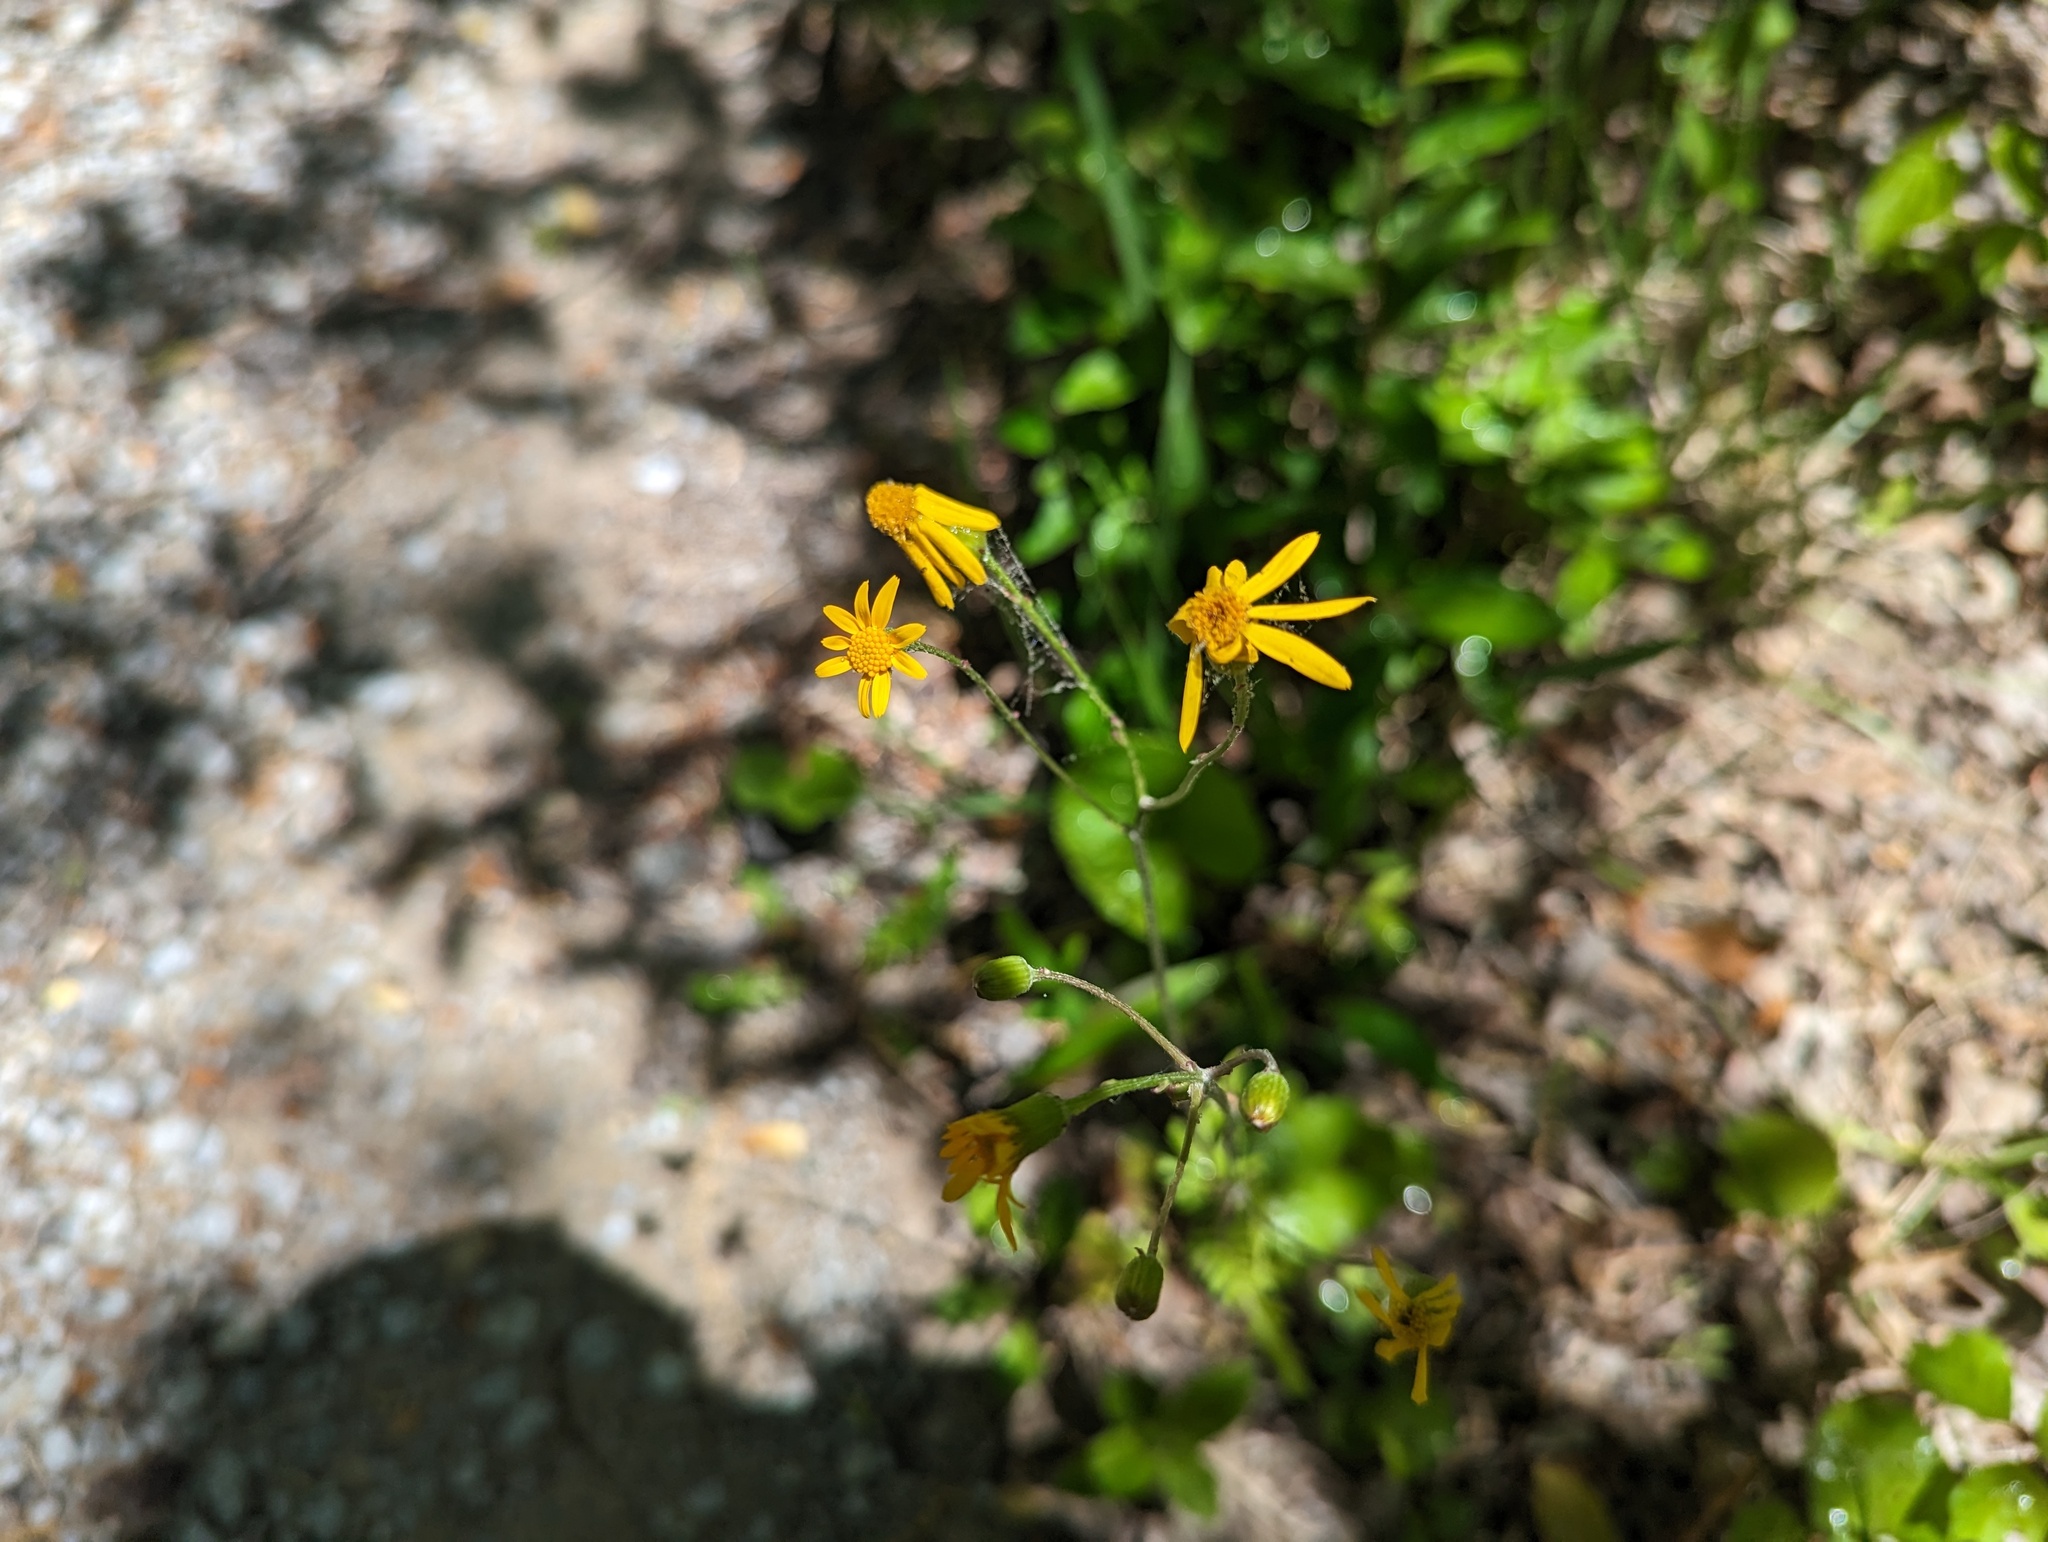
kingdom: Plantae
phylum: Tracheophyta
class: Magnoliopsida
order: Asterales
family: Asteraceae
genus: Packera
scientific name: Packera aurea
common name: Golden groundsel
